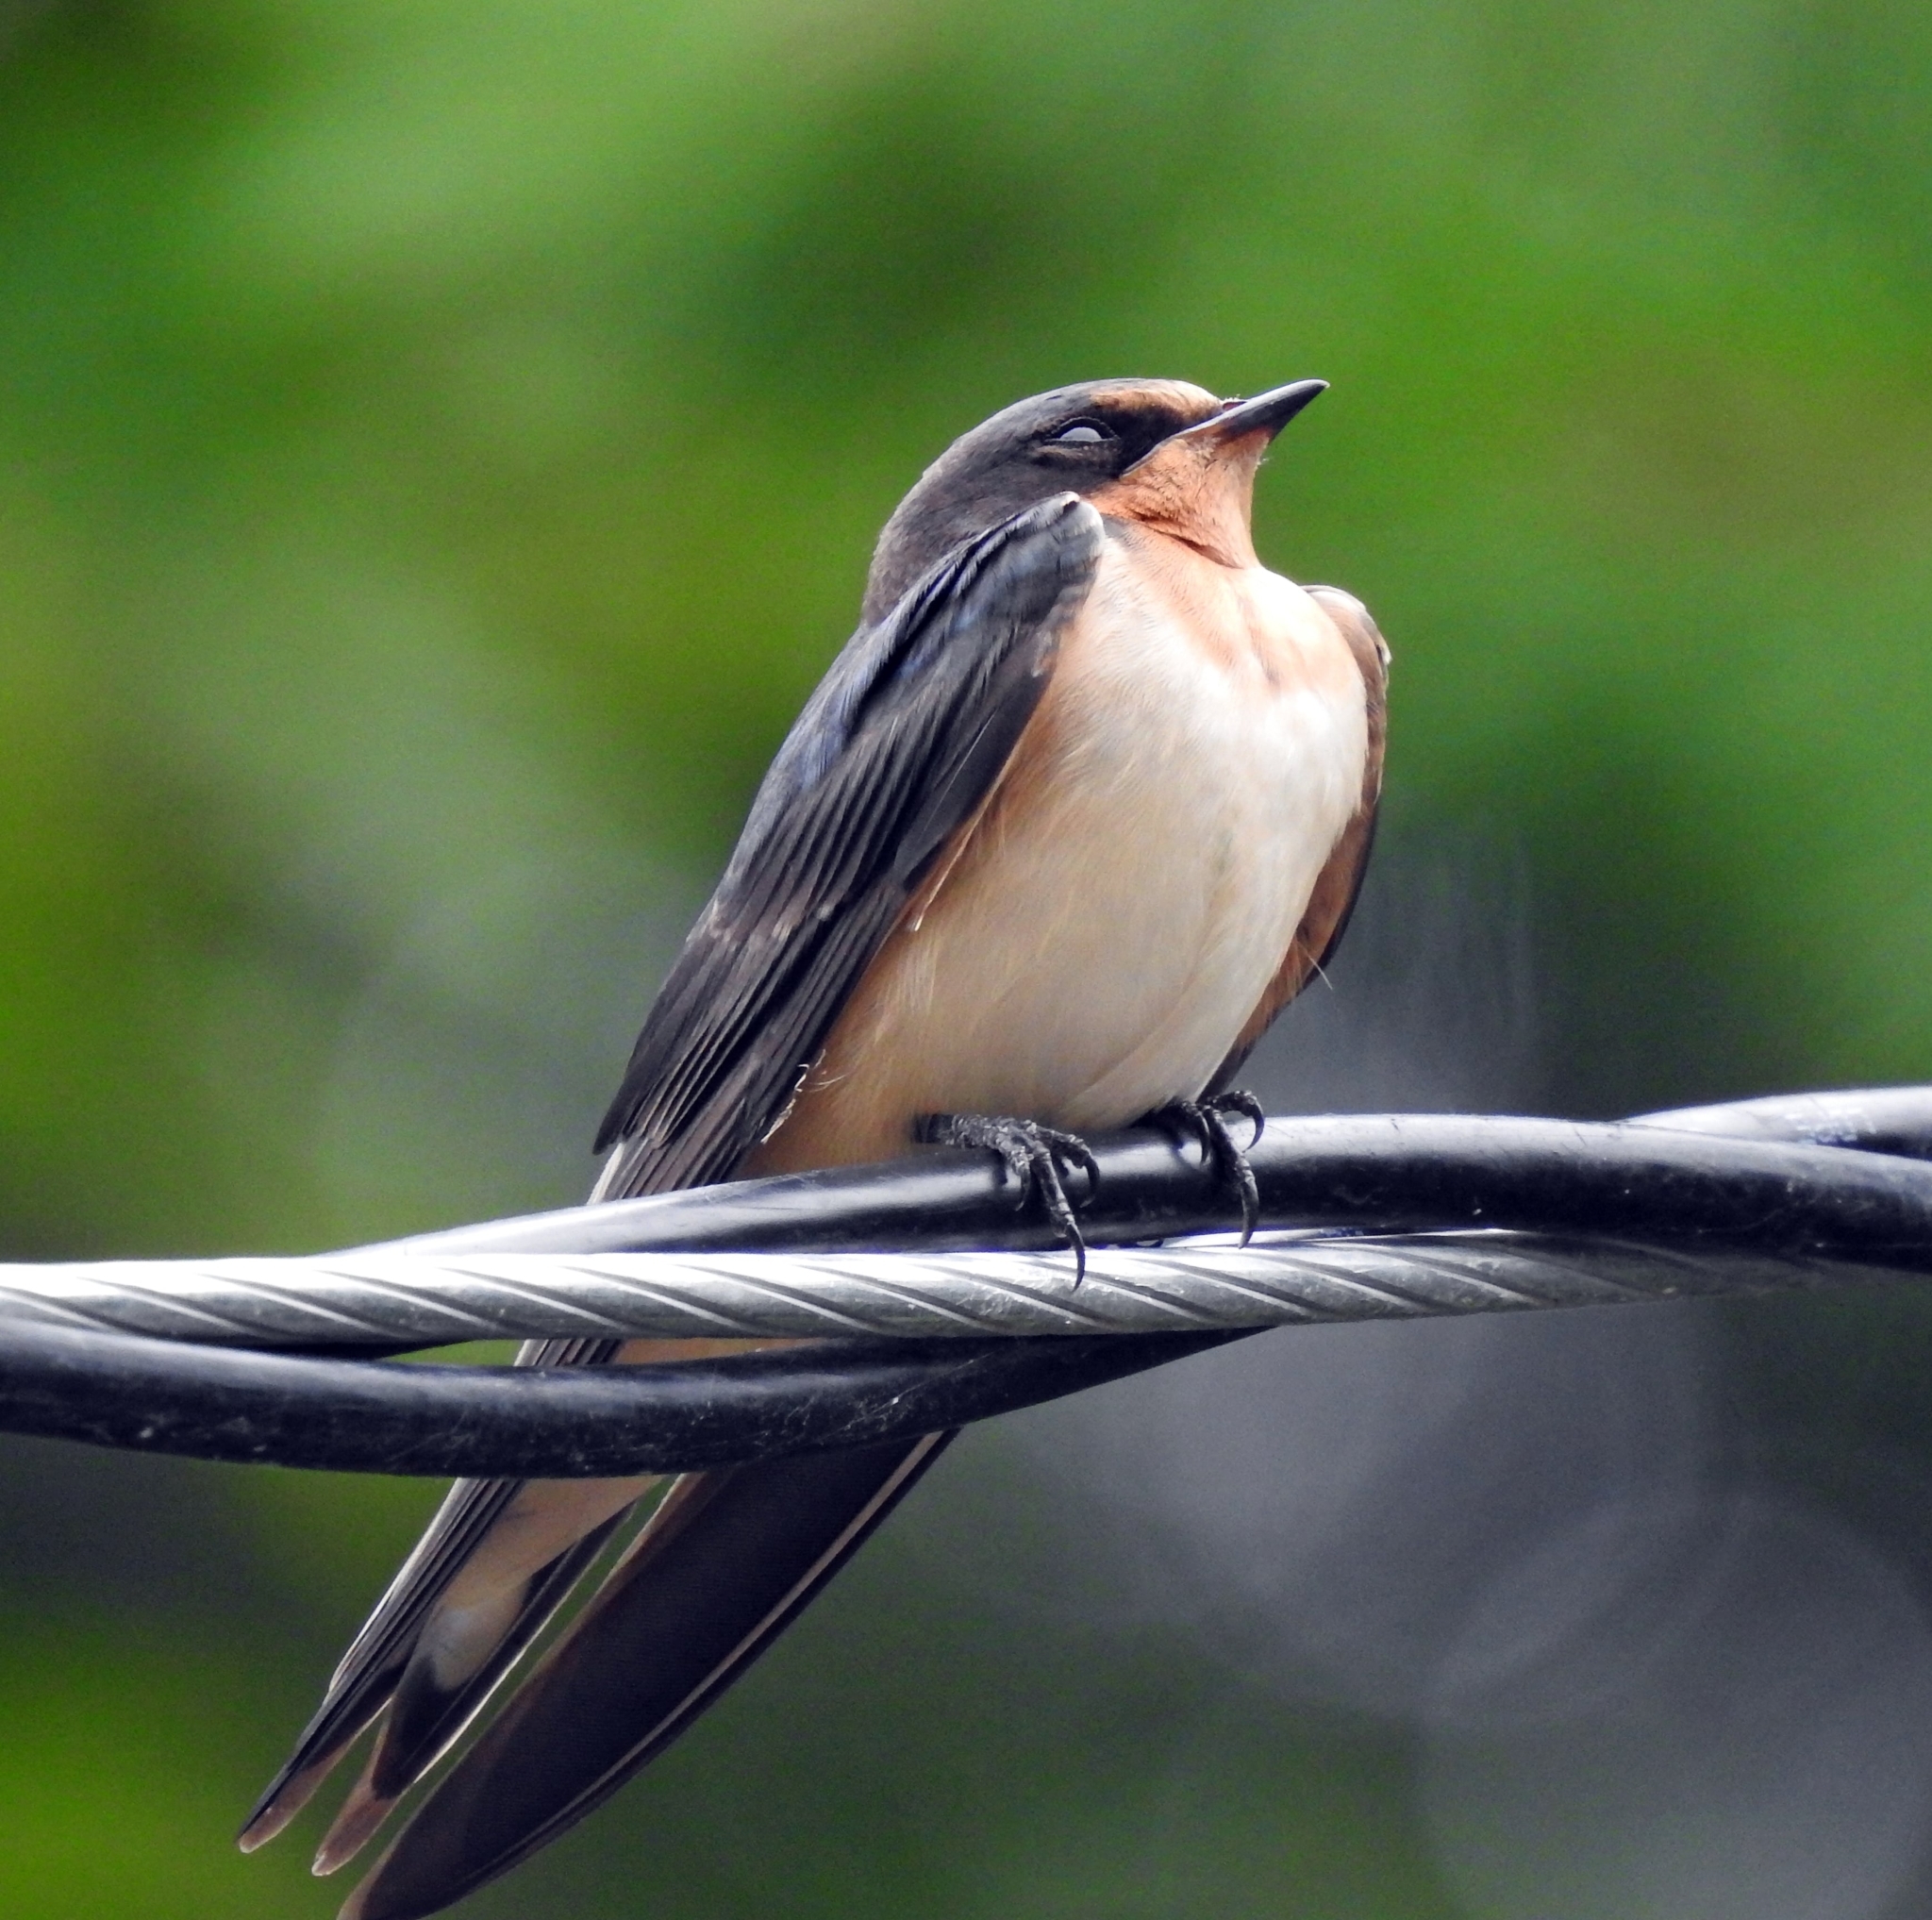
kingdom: Animalia
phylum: Chordata
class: Aves
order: Passeriformes
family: Hirundinidae
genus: Hirundo
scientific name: Hirundo rustica
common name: Barn swallow
